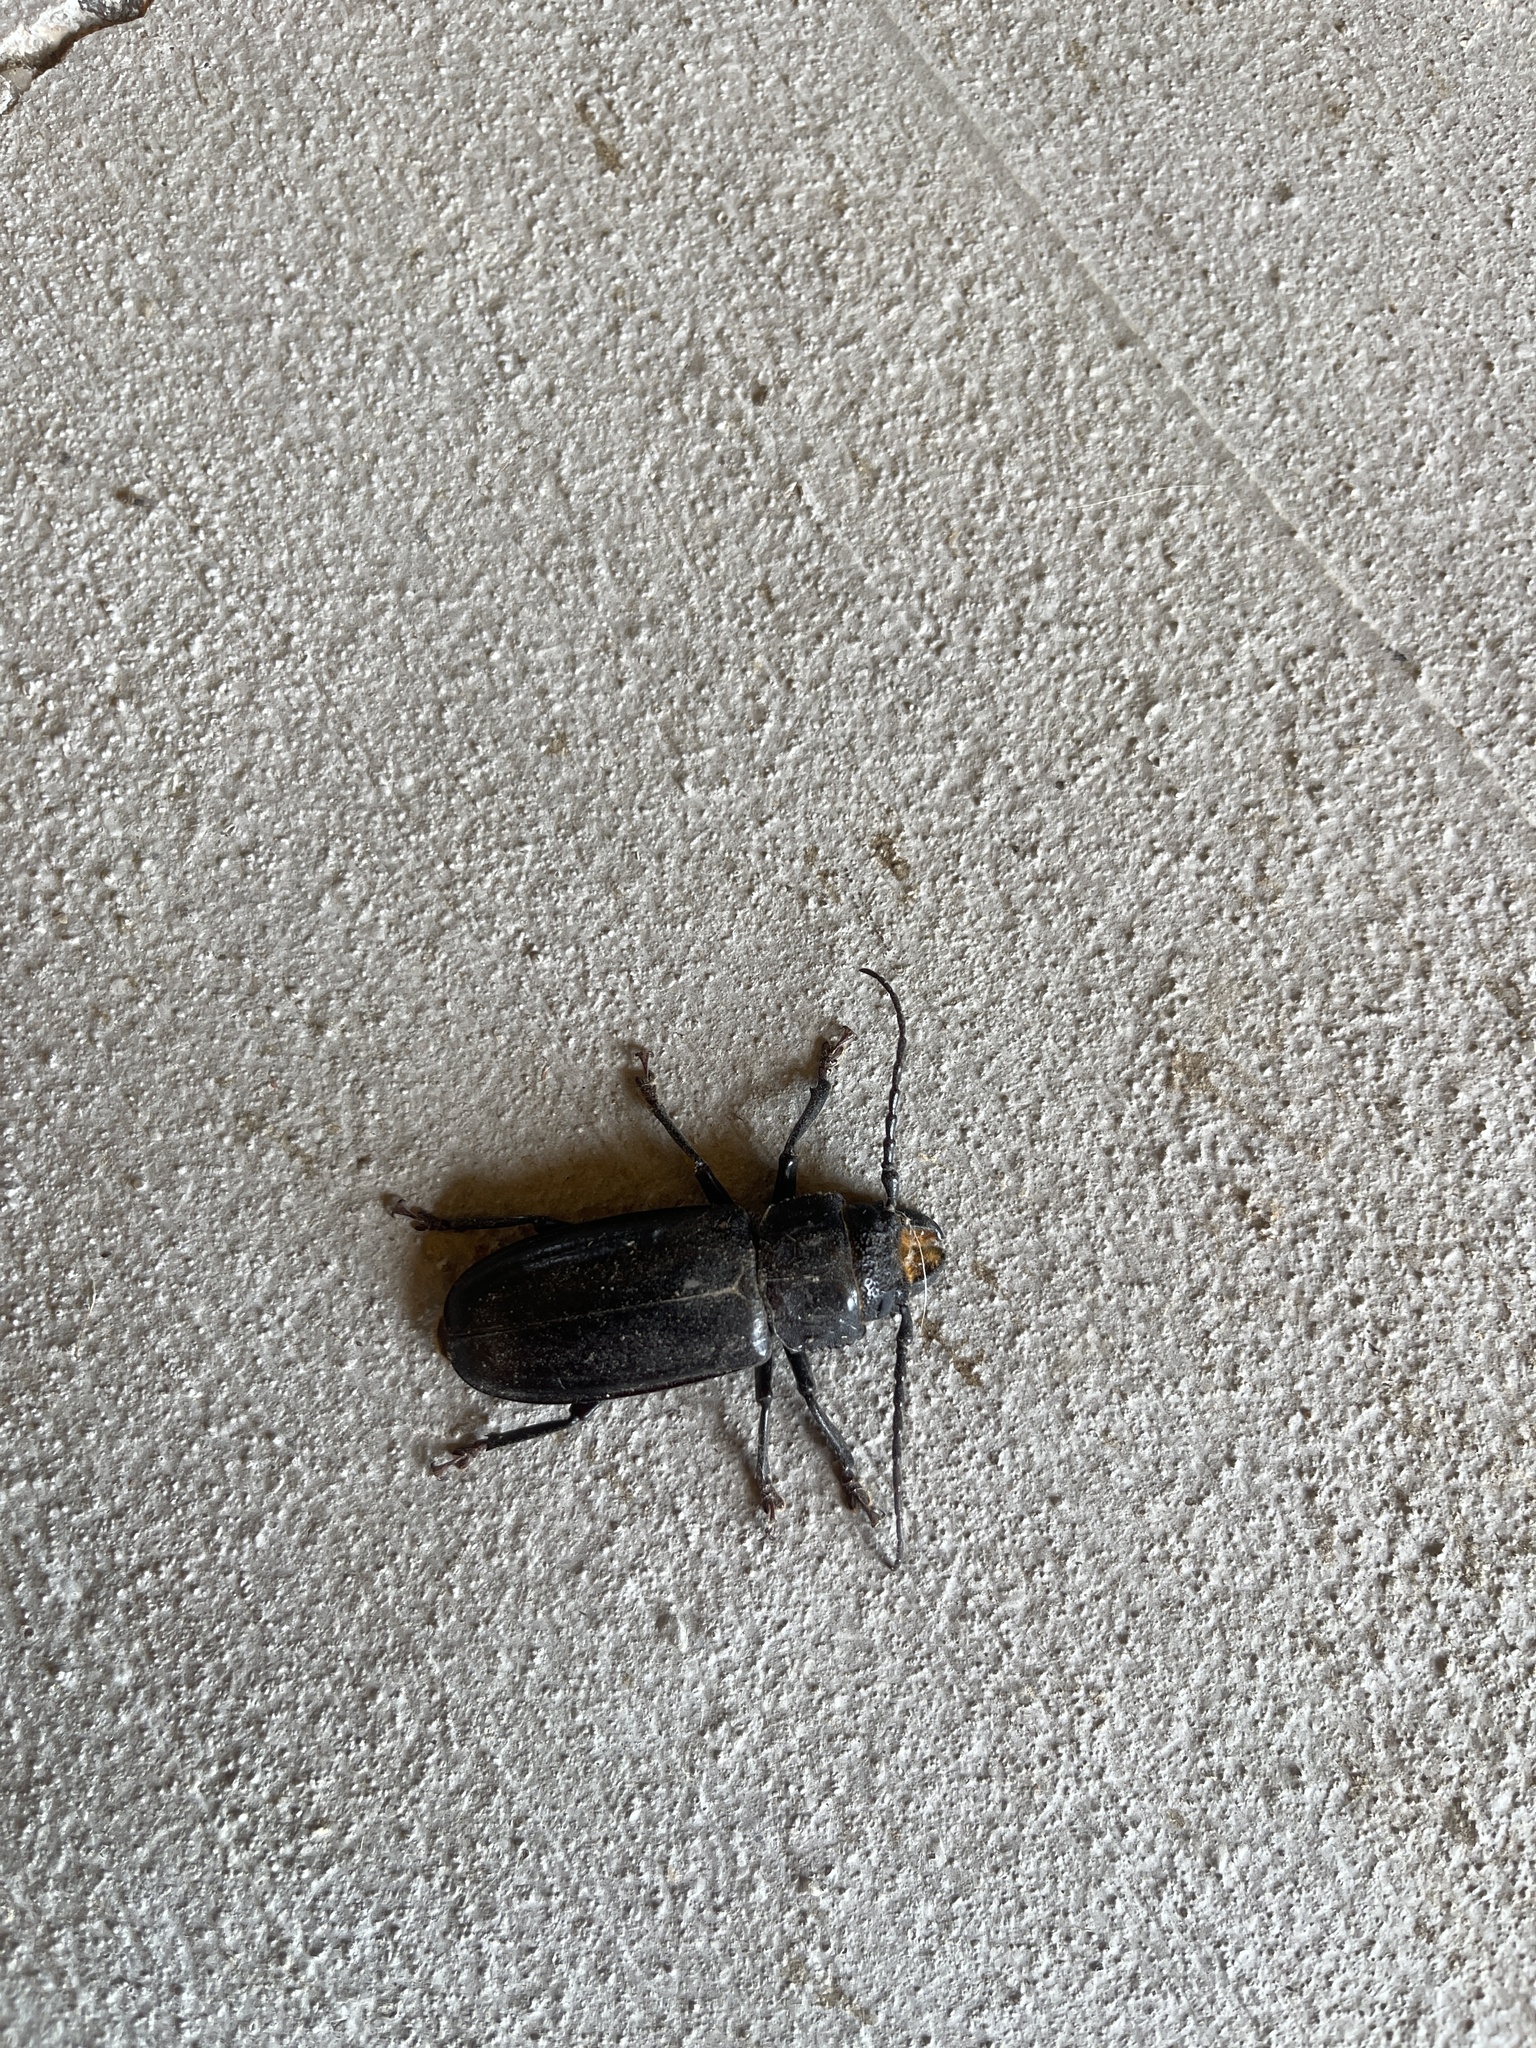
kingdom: Animalia
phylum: Arthropoda
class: Insecta
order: Coleoptera
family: Cerambycidae
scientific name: Cerambycidae
